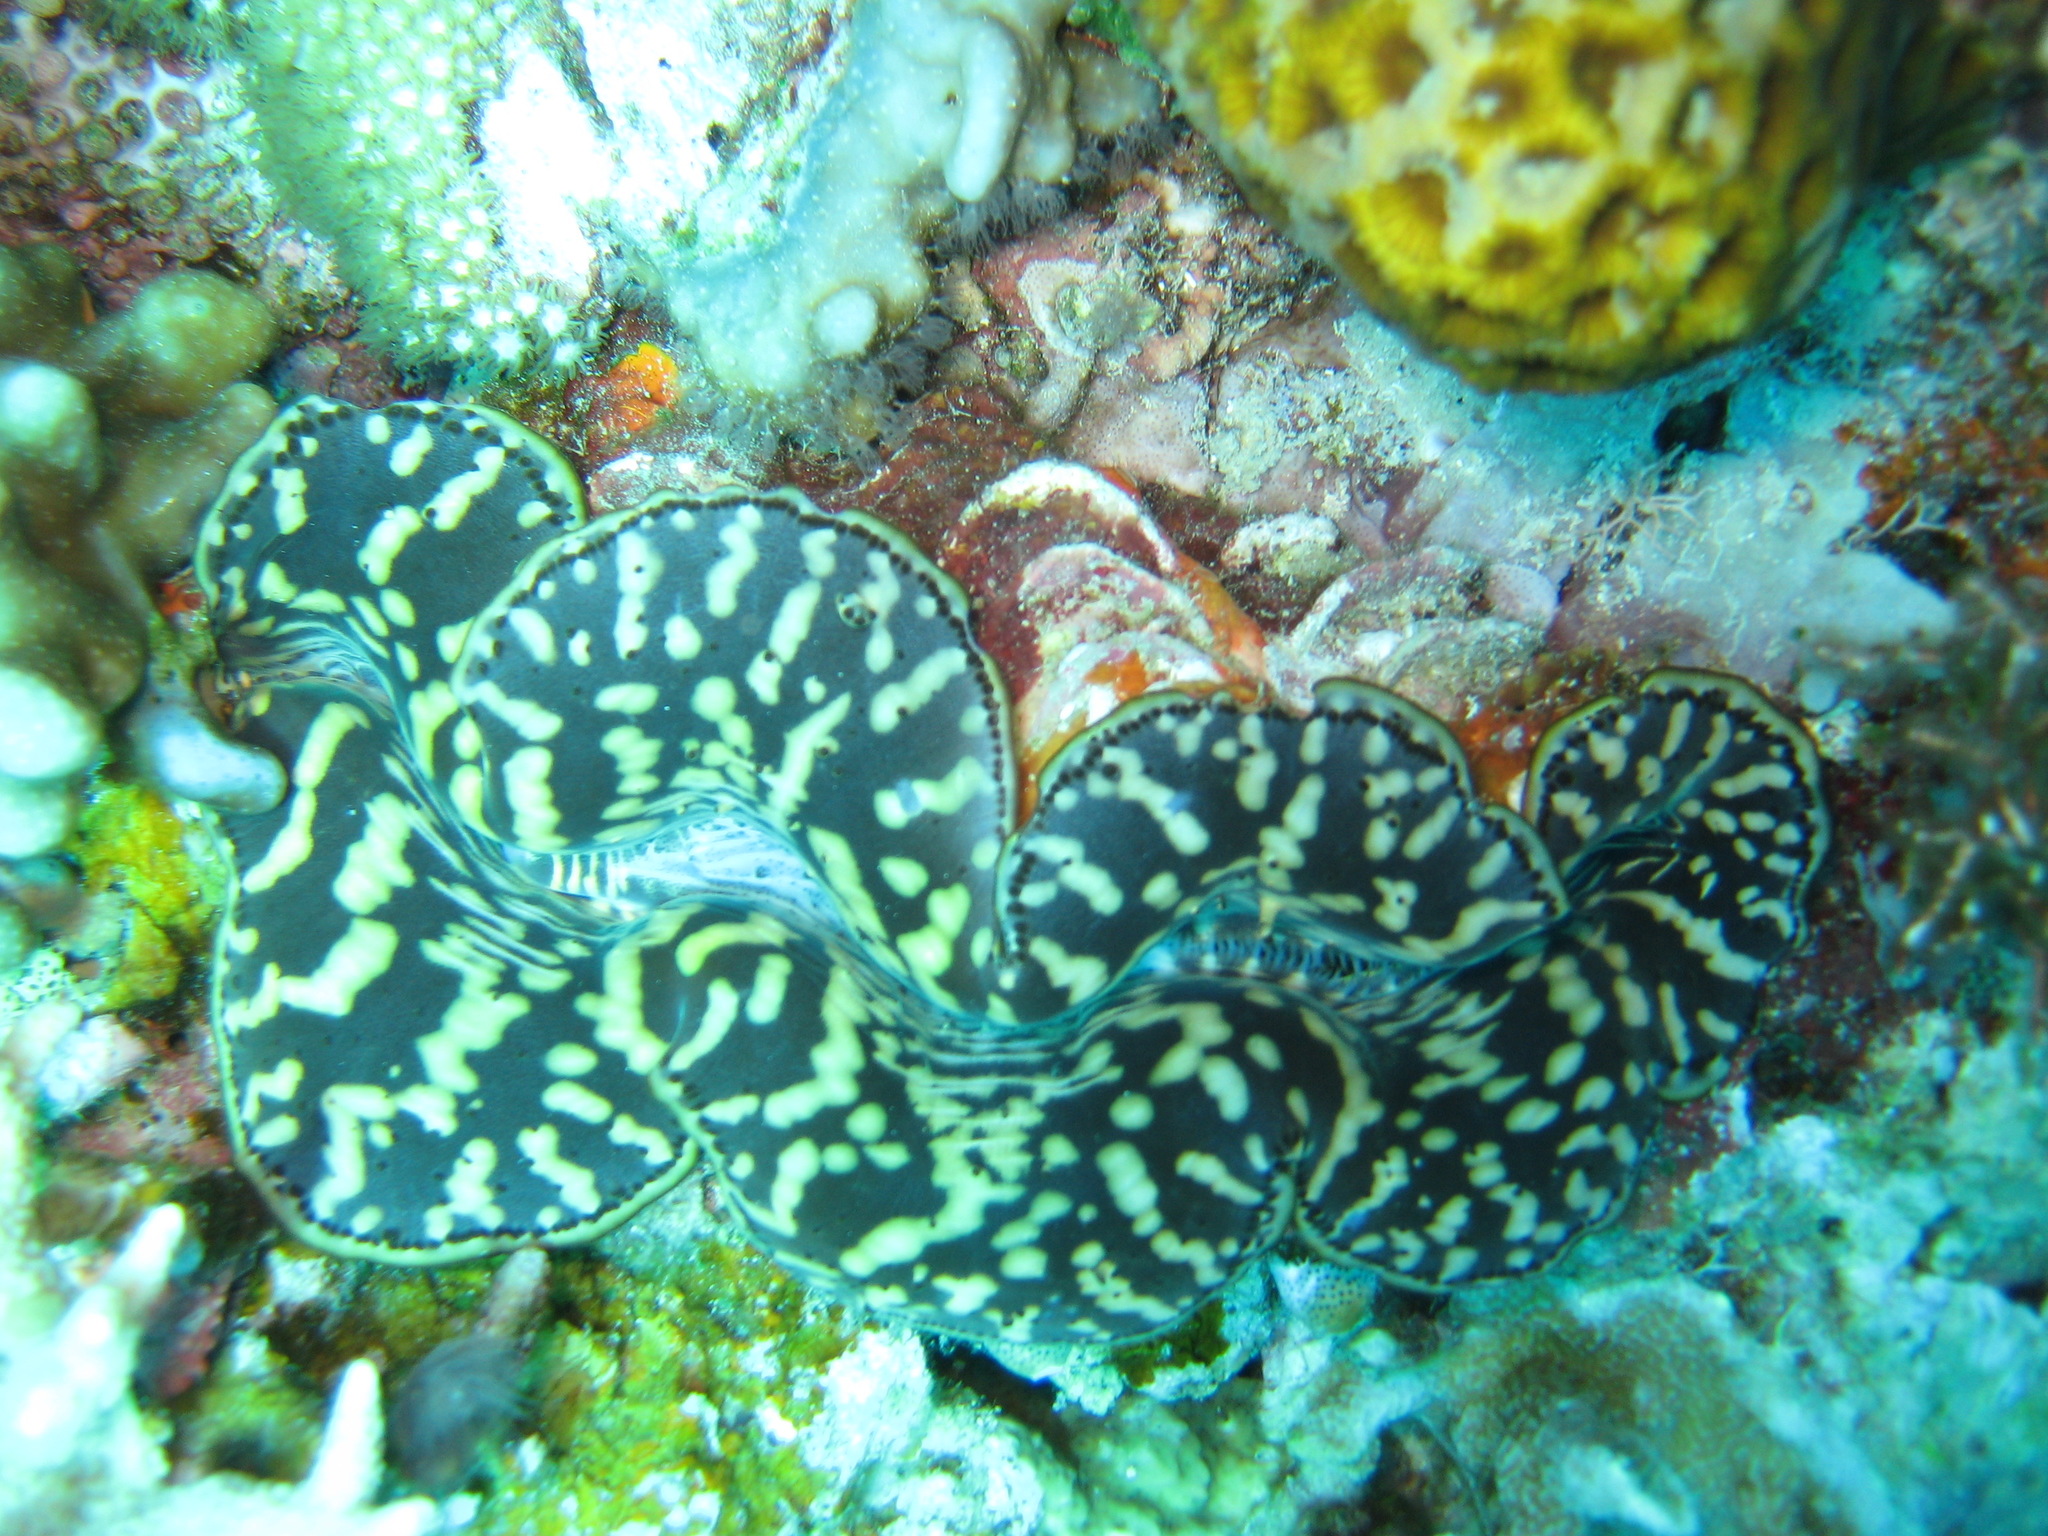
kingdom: Animalia
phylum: Mollusca
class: Bivalvia
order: Cardiida
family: Cardiidae
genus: Tridacna
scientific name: Tridacna maxima
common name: Small giant clam
